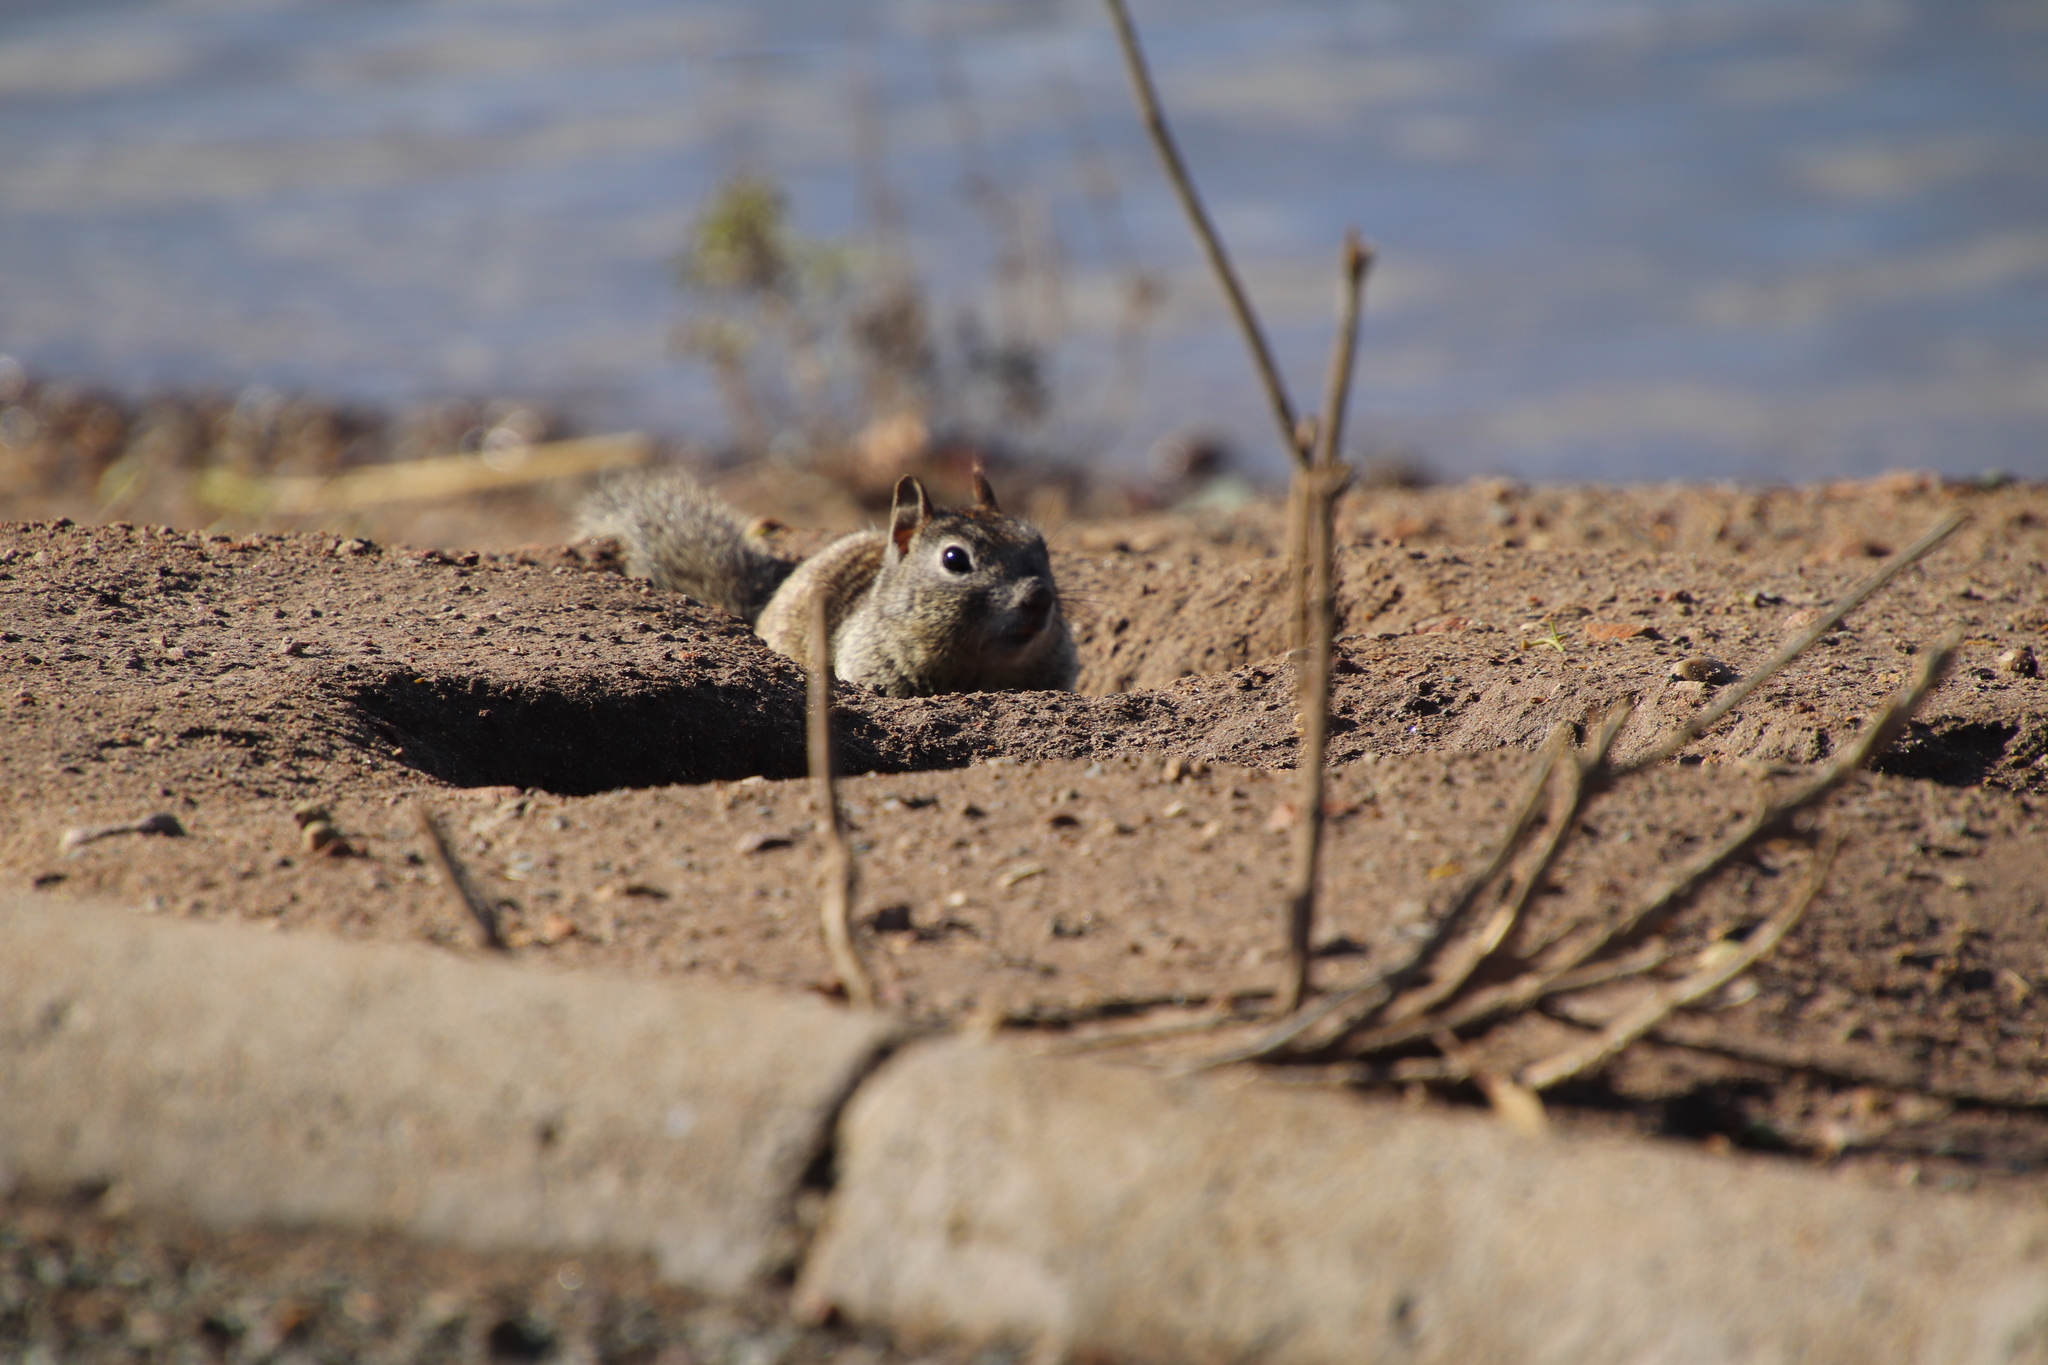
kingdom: Animalia
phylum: Chordata
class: Mammalia
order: Rodentia
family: Sciuridae
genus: Otospermophilus
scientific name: Otospermophilus beecheyi
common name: California ground squirrel
